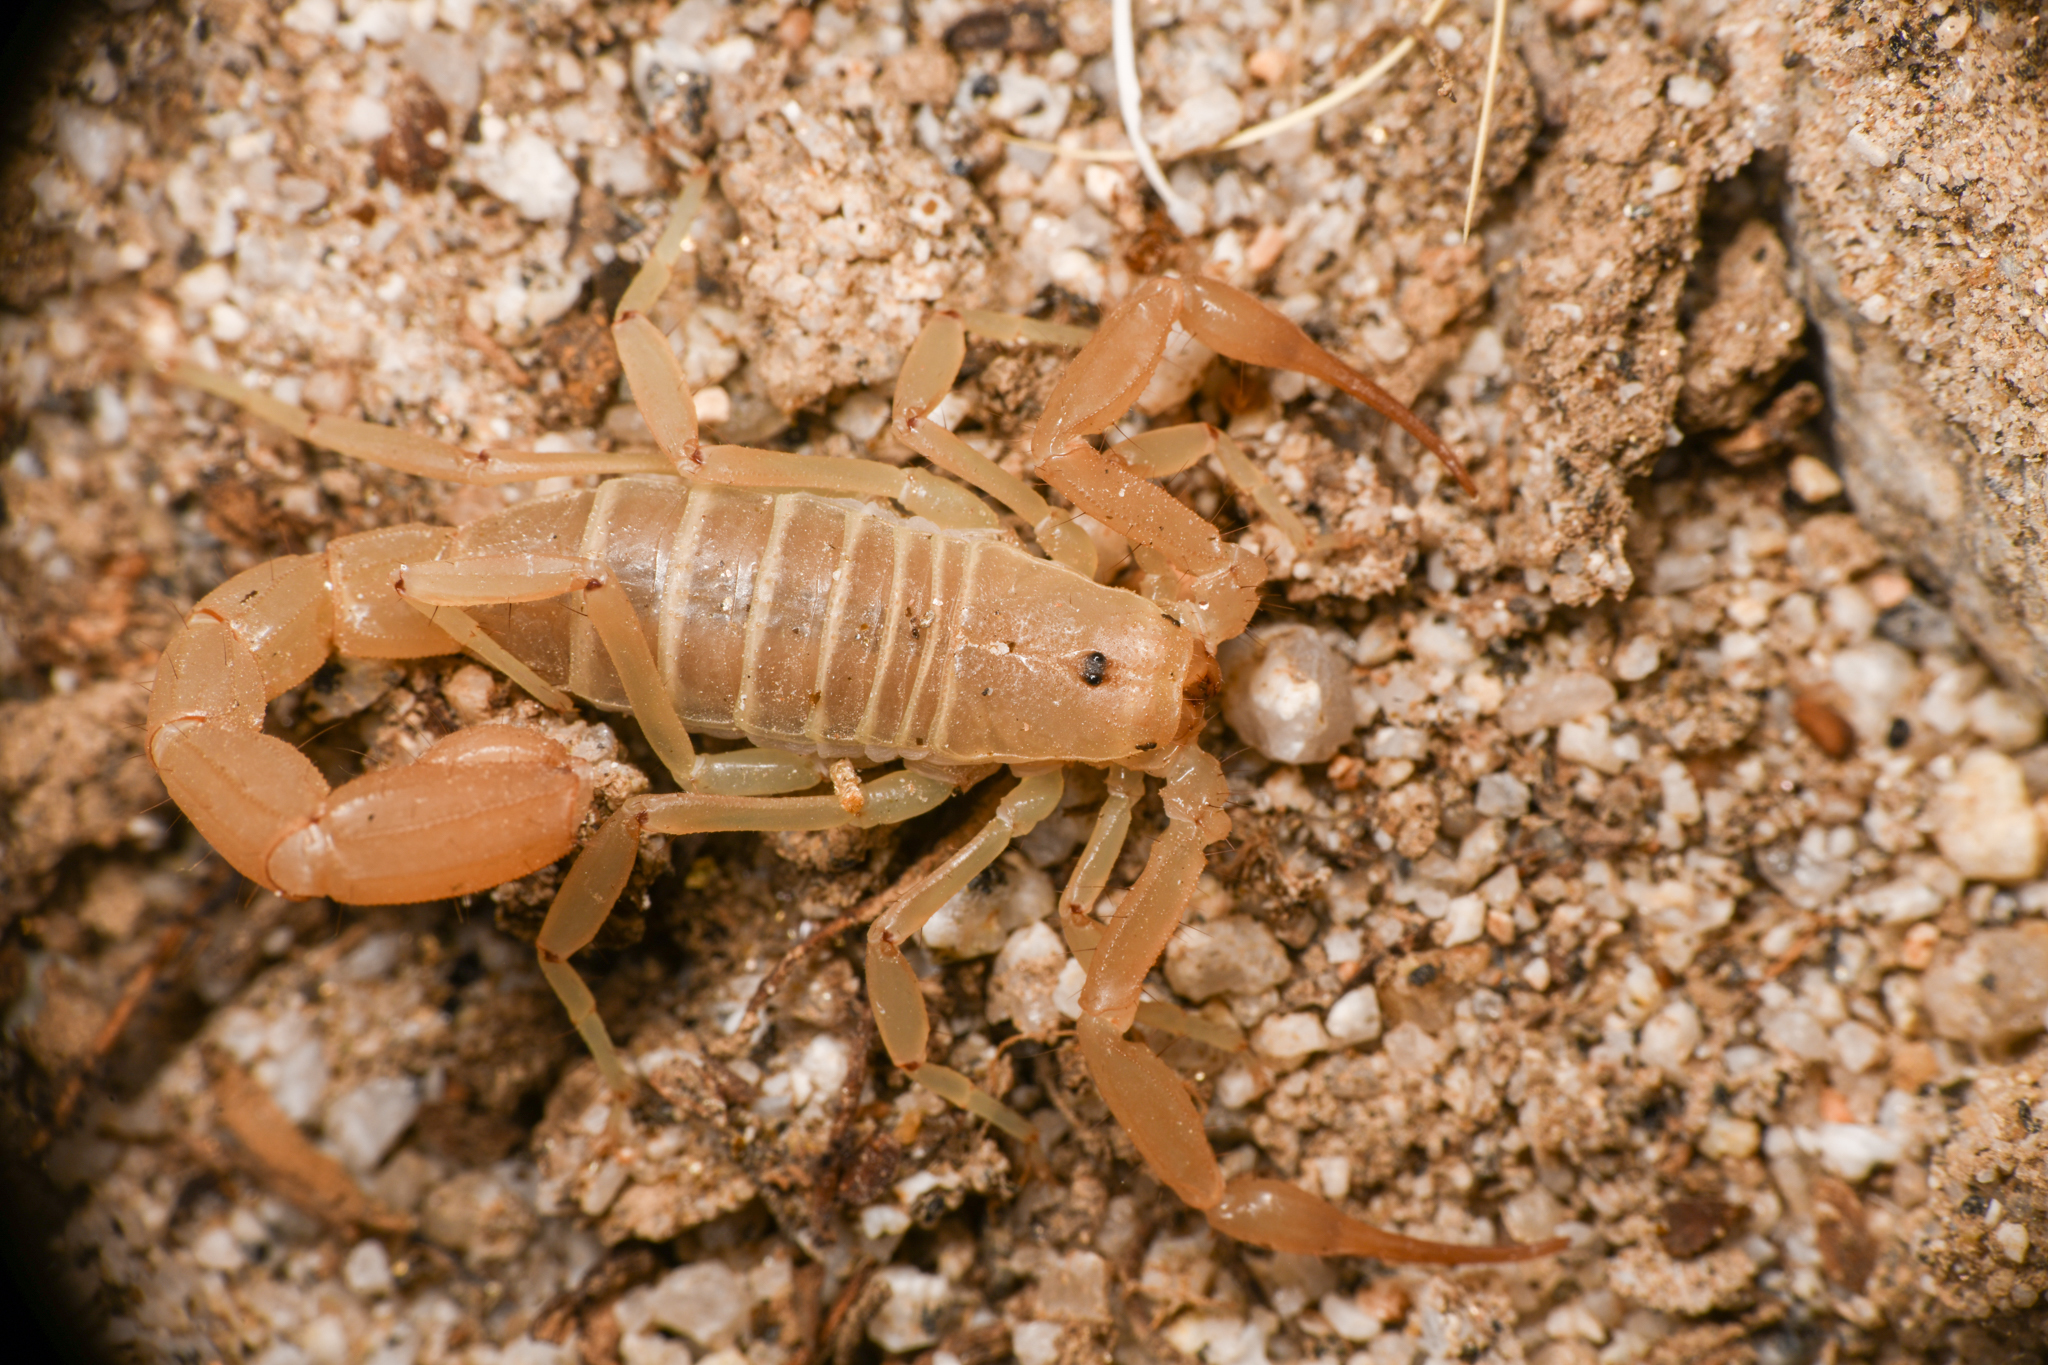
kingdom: Animalia
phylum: Arthropoda
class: Arachnida
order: Scorpiones
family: Vaejovidae
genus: Paravaejovis
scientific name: Paravaejovis waeringi
